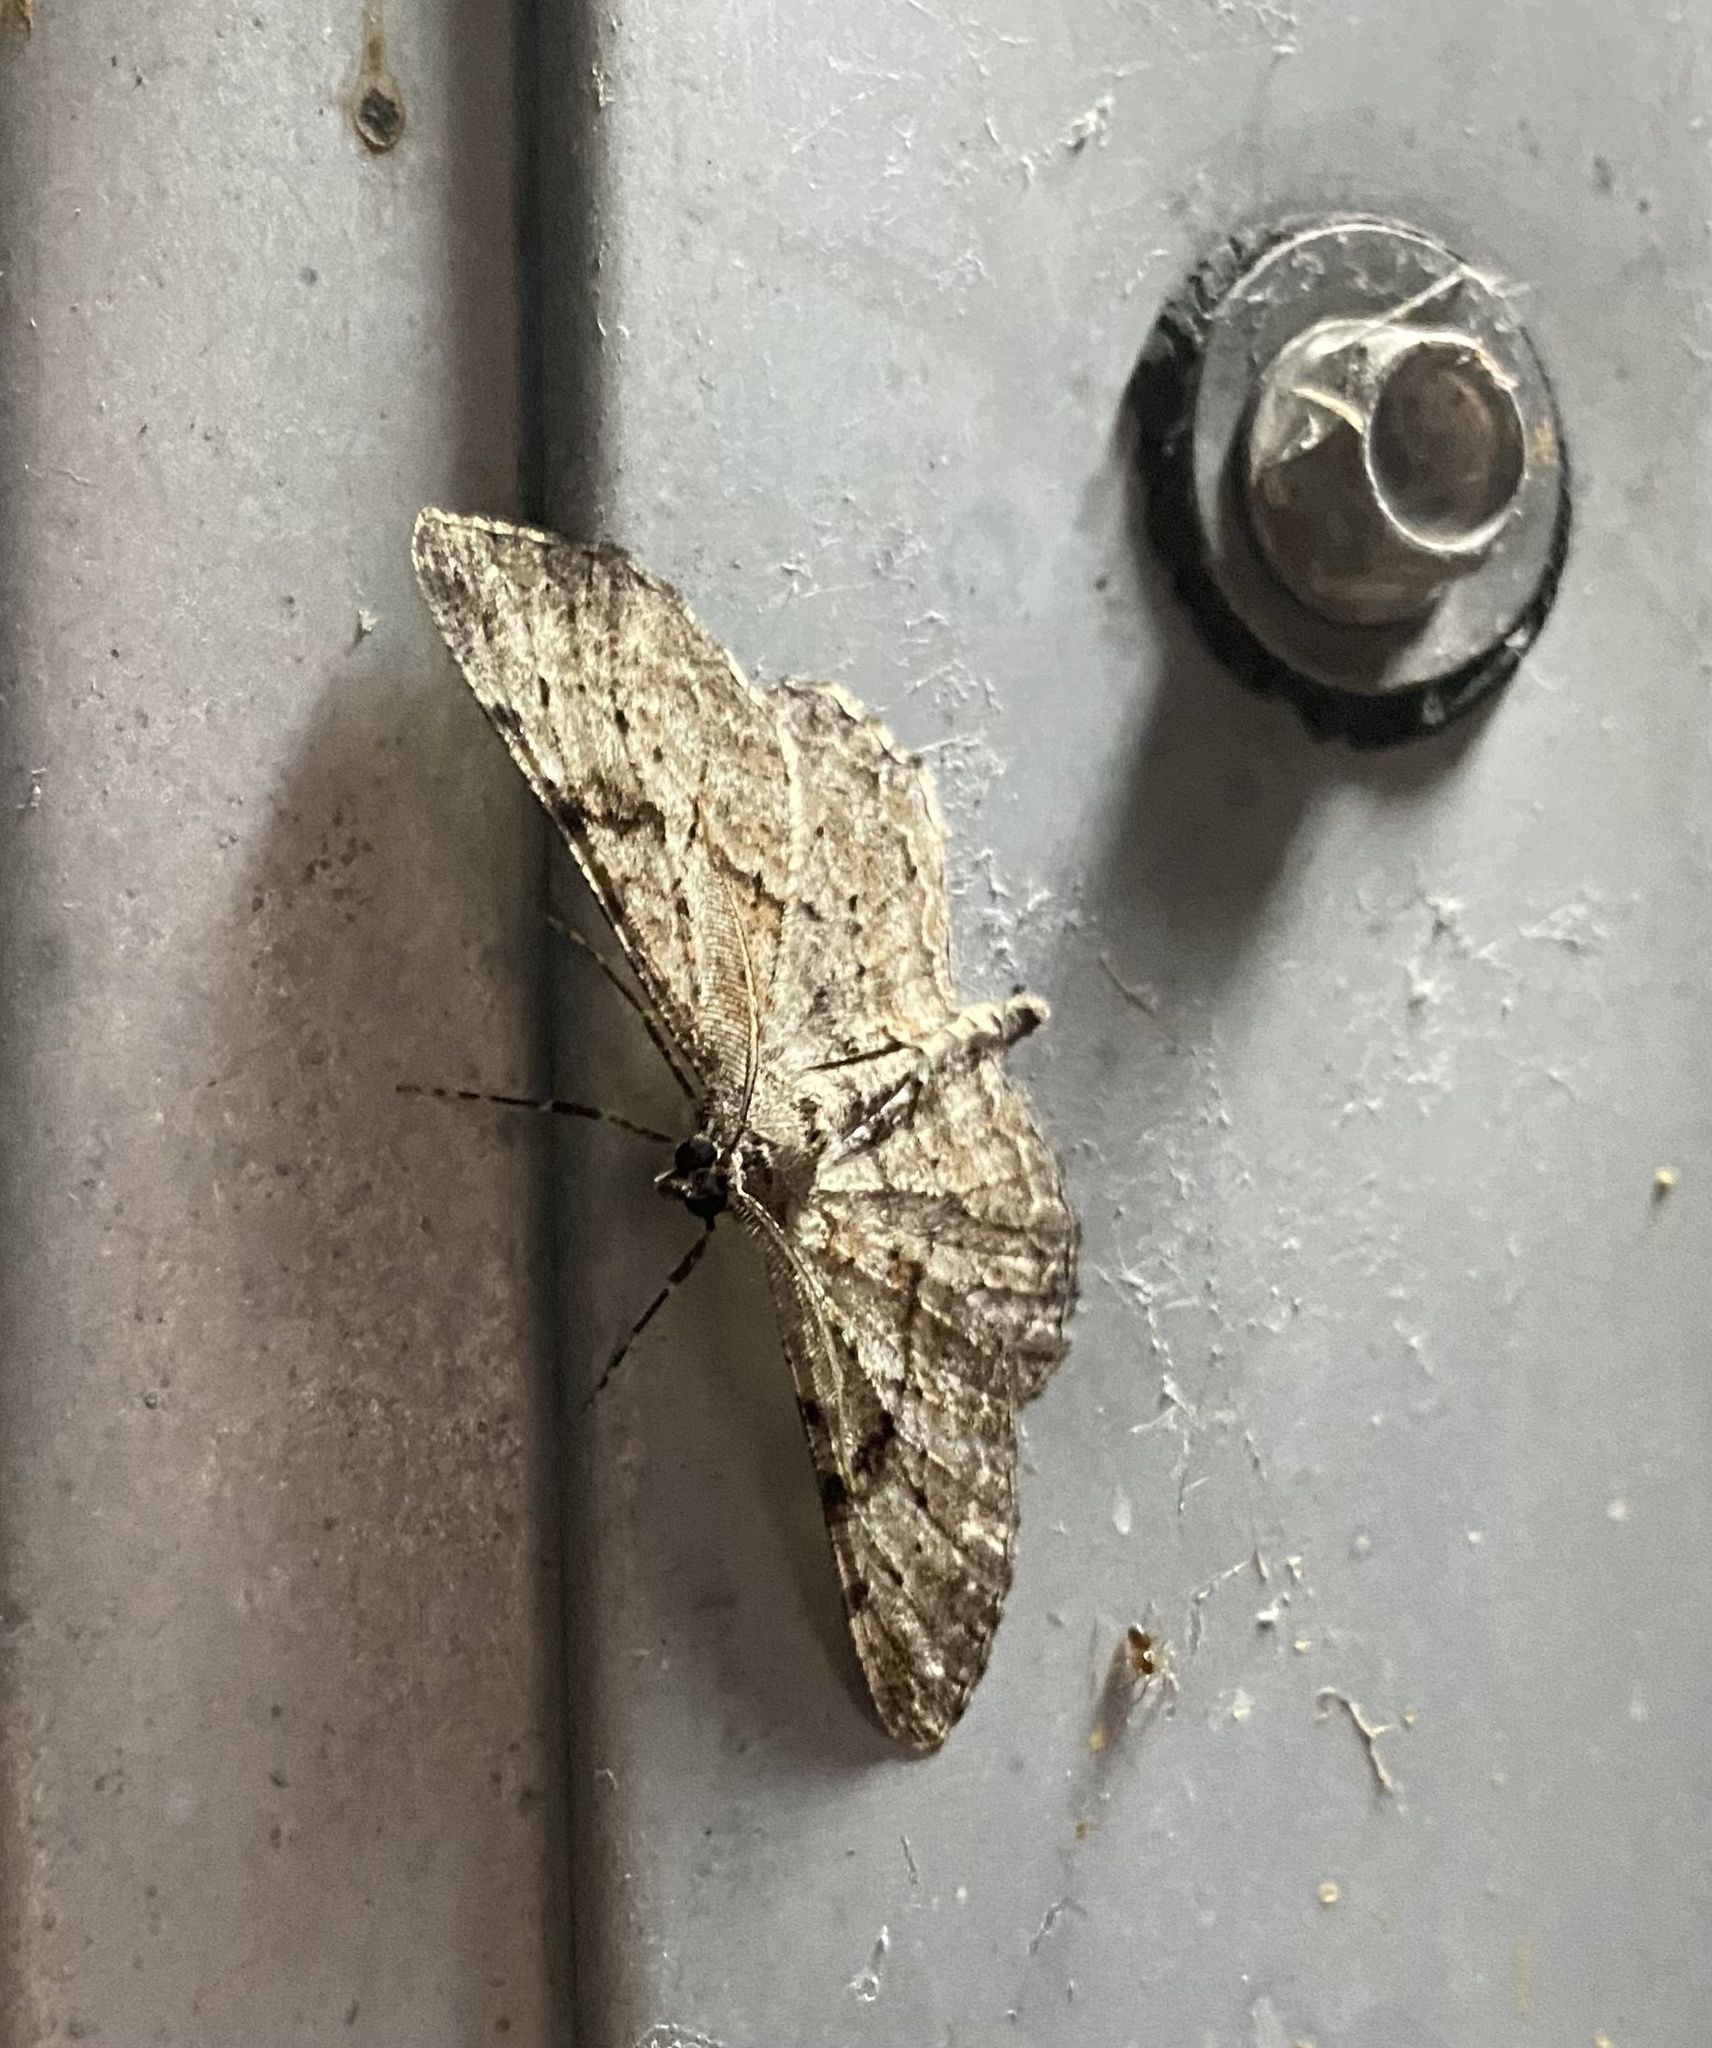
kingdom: Animalia
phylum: Arthropoda
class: Insecta
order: Lepidoptera
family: Geometridae
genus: Peribatodes
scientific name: Peribatodes rhomboidaria
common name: Willow beauty
